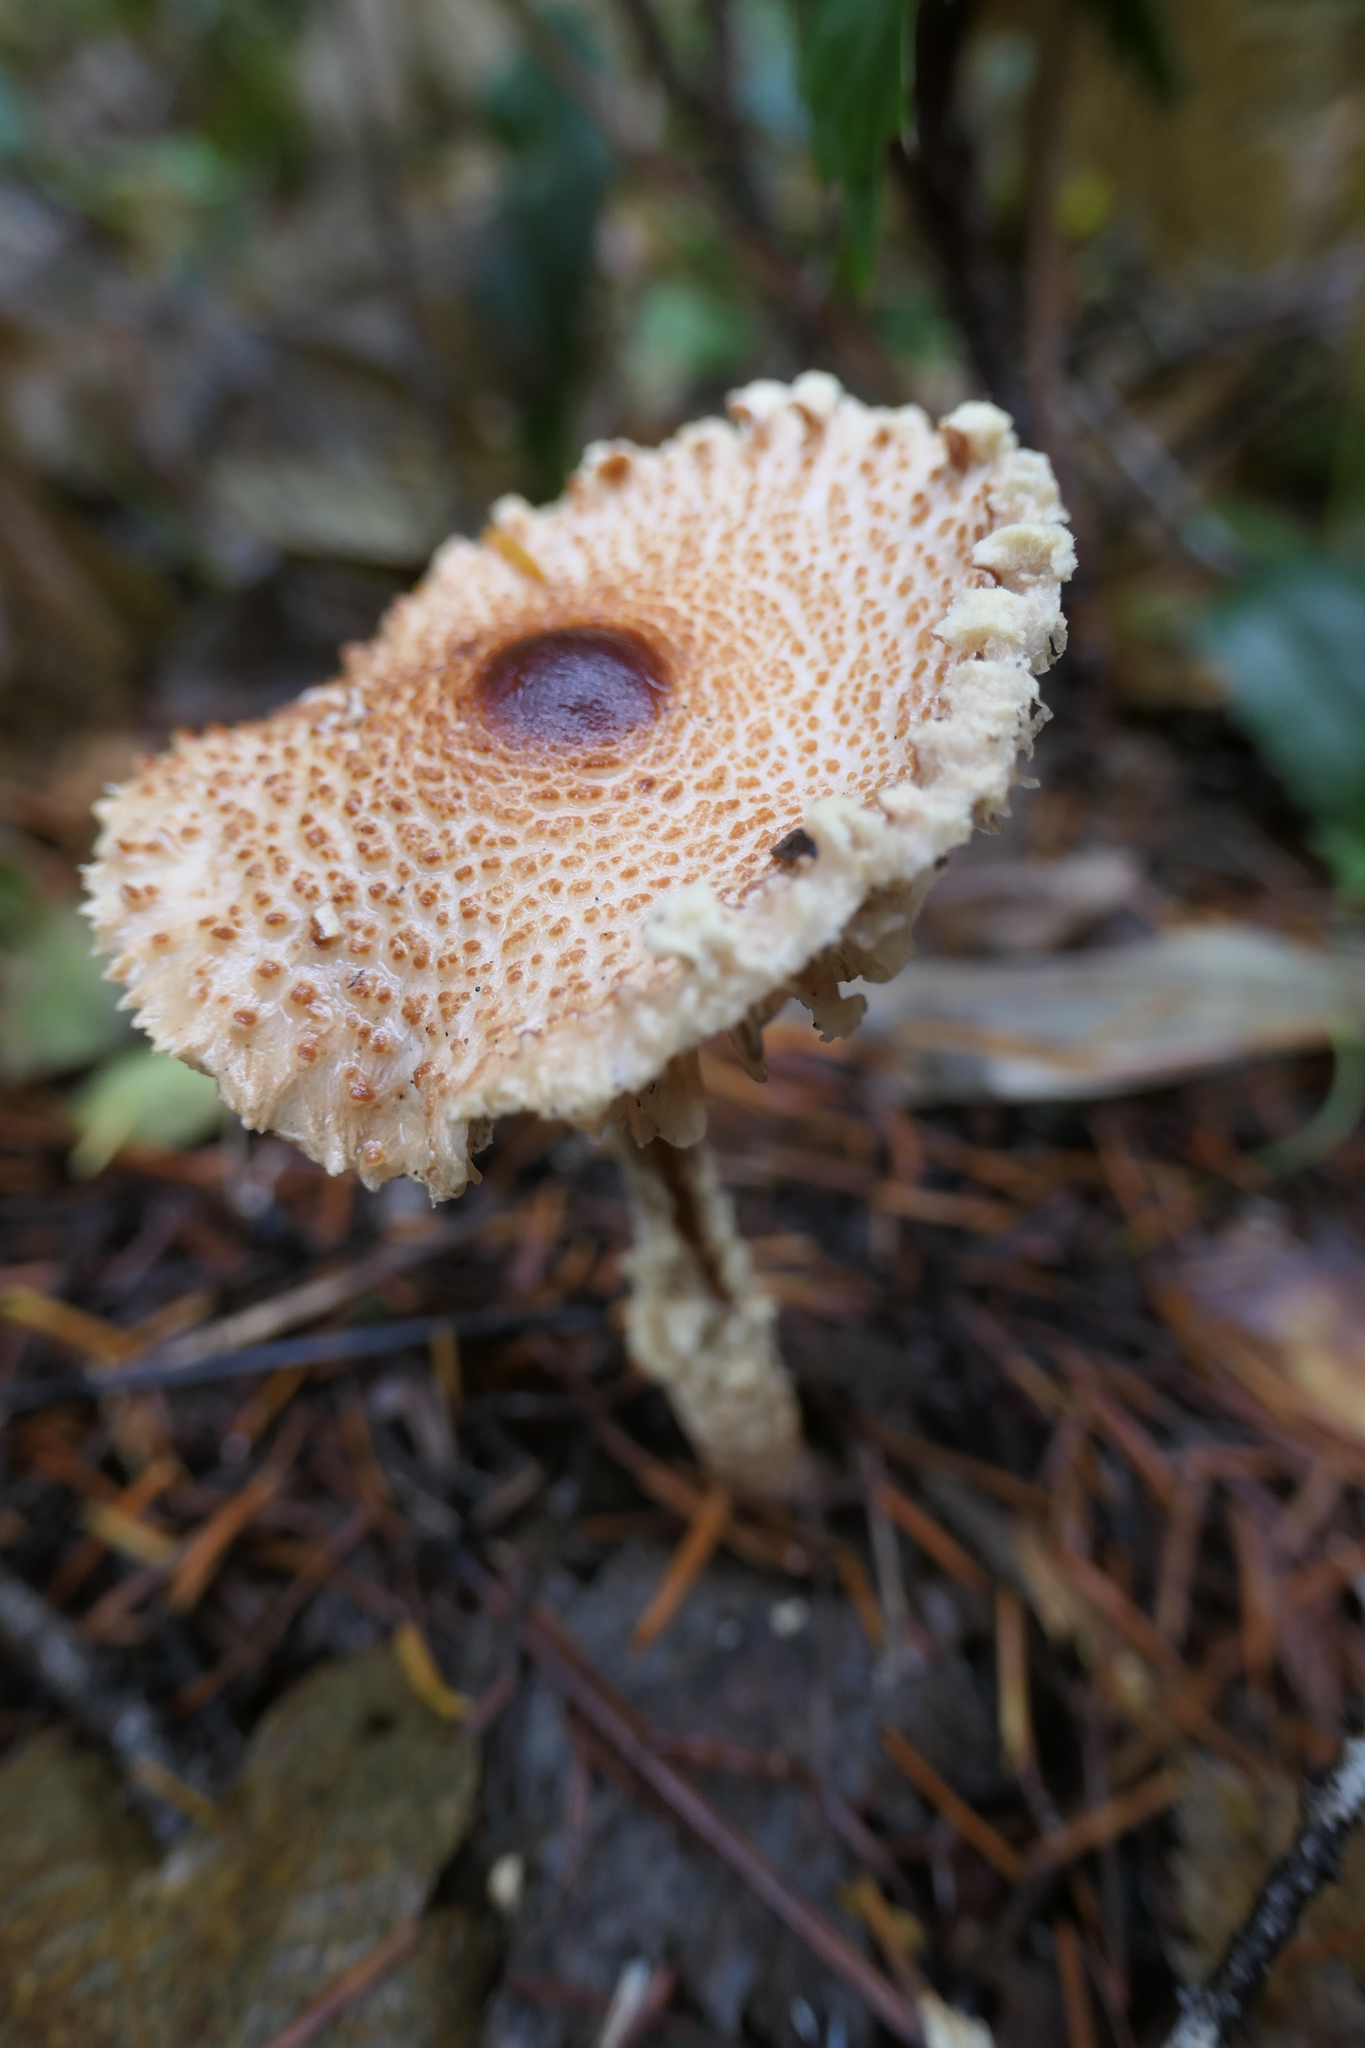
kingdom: Fungi
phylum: Basidiomycota
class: Agaricomycetes
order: Agaricales
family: Agaricaceae
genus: Lepiota
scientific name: Lepiota magnispora
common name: Yellowfoot dapperling
